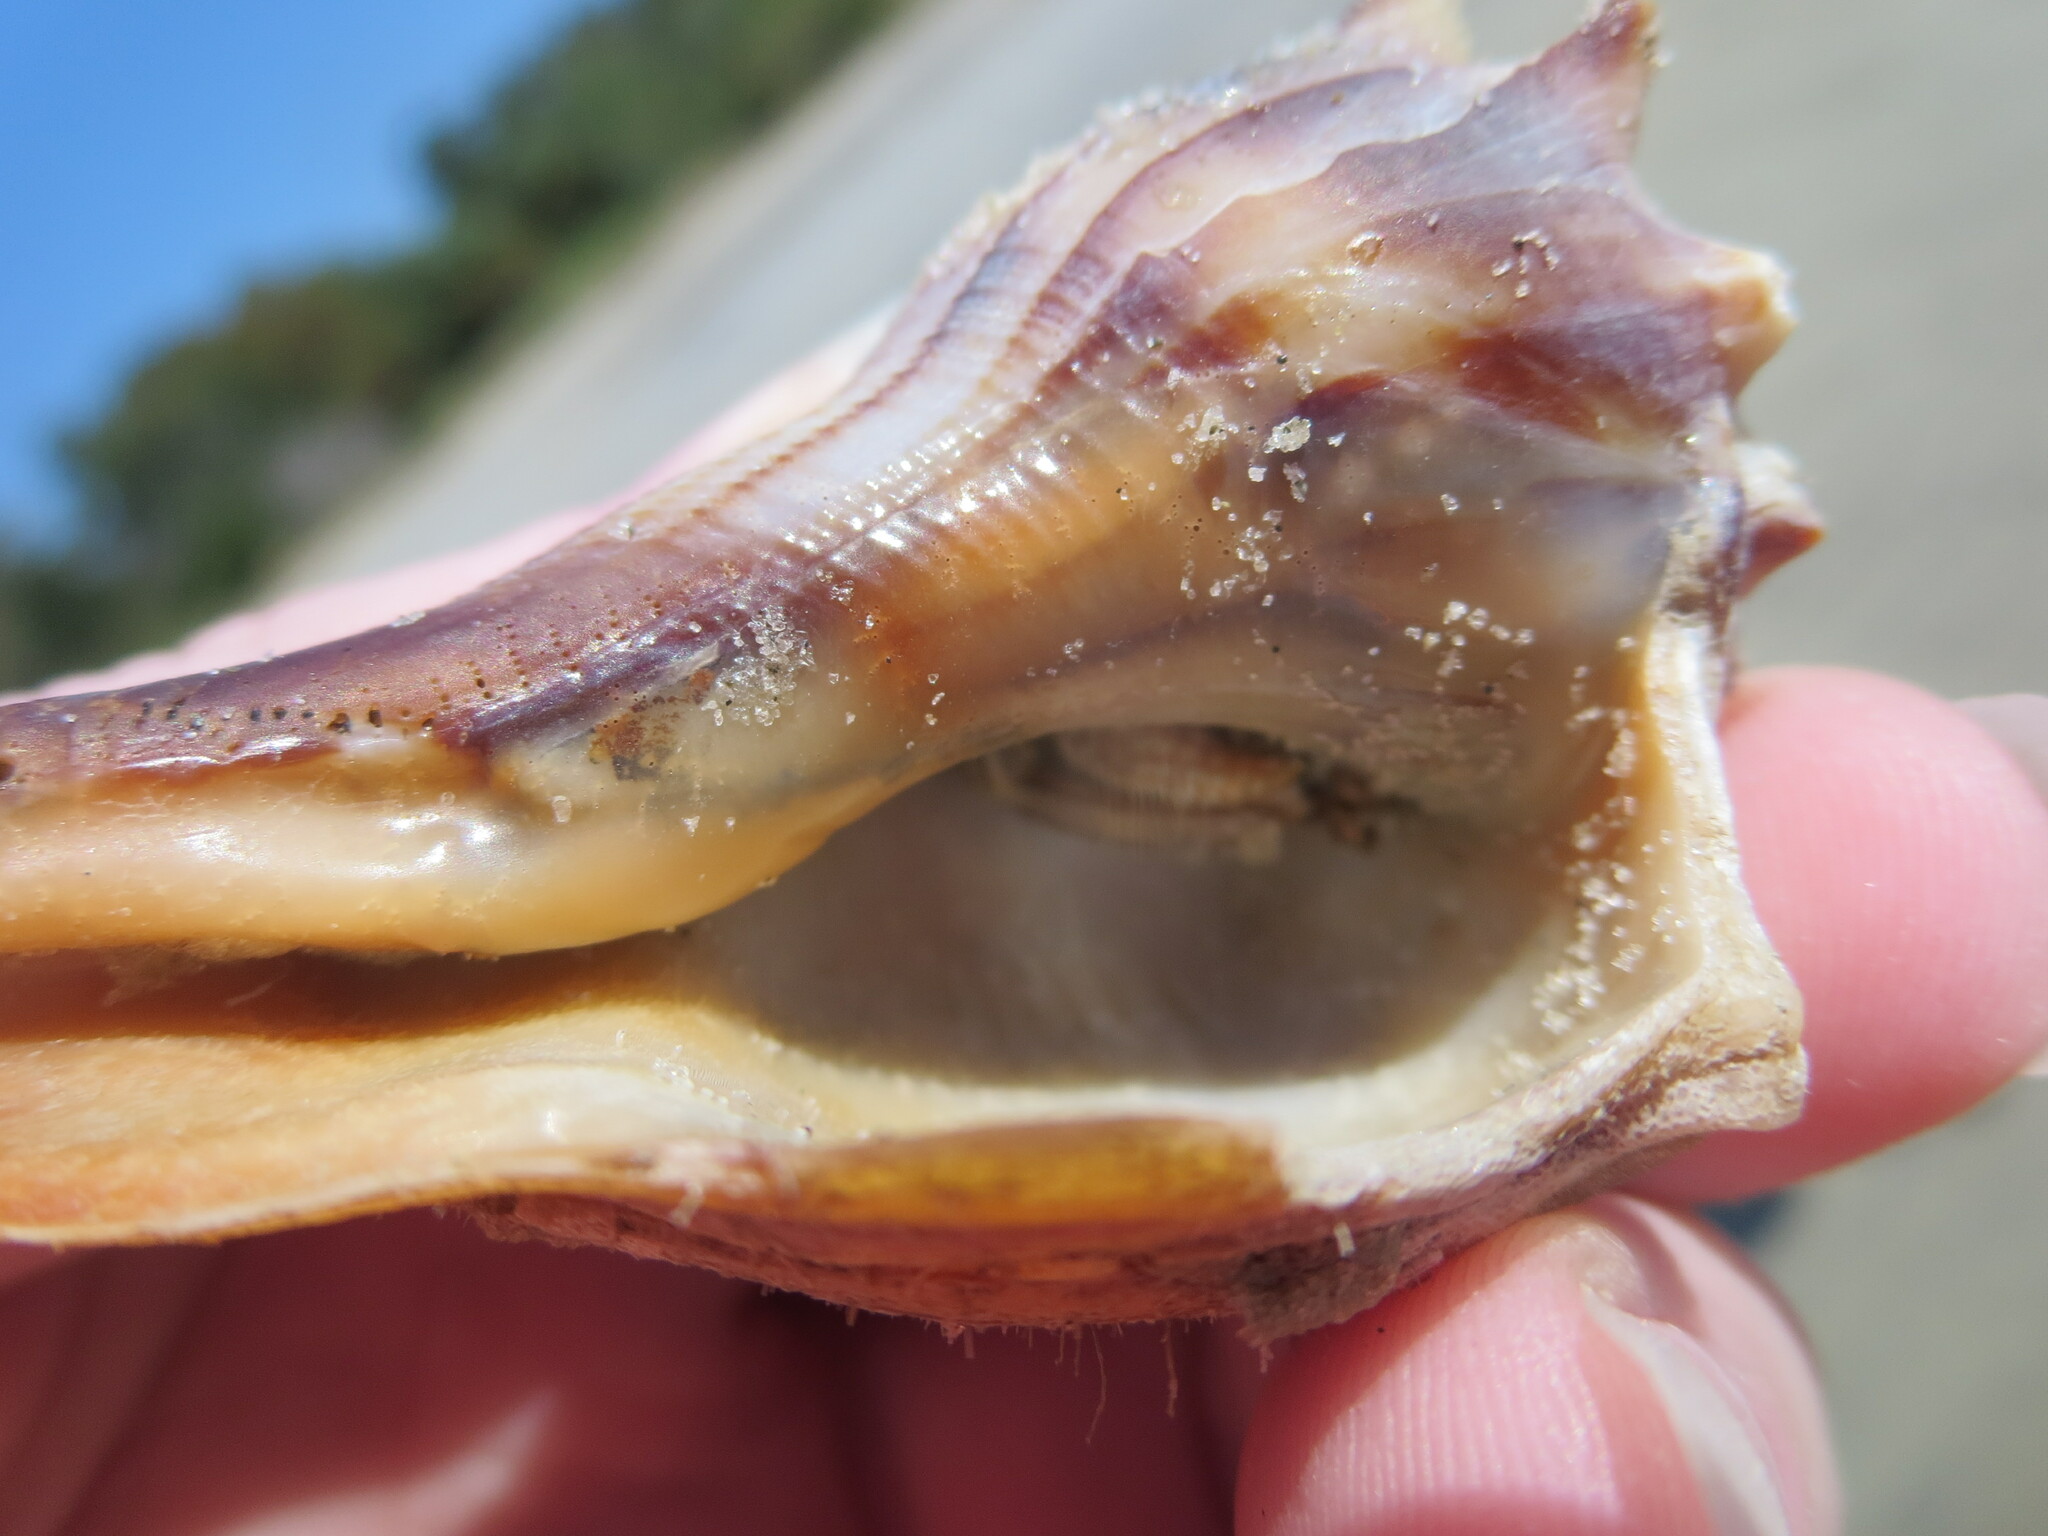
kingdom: Animalia
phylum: Arthropoda
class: Malacostraca
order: Decapoda
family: Diogenidae
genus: Clibanarius
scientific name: Clibanarius vittatus
